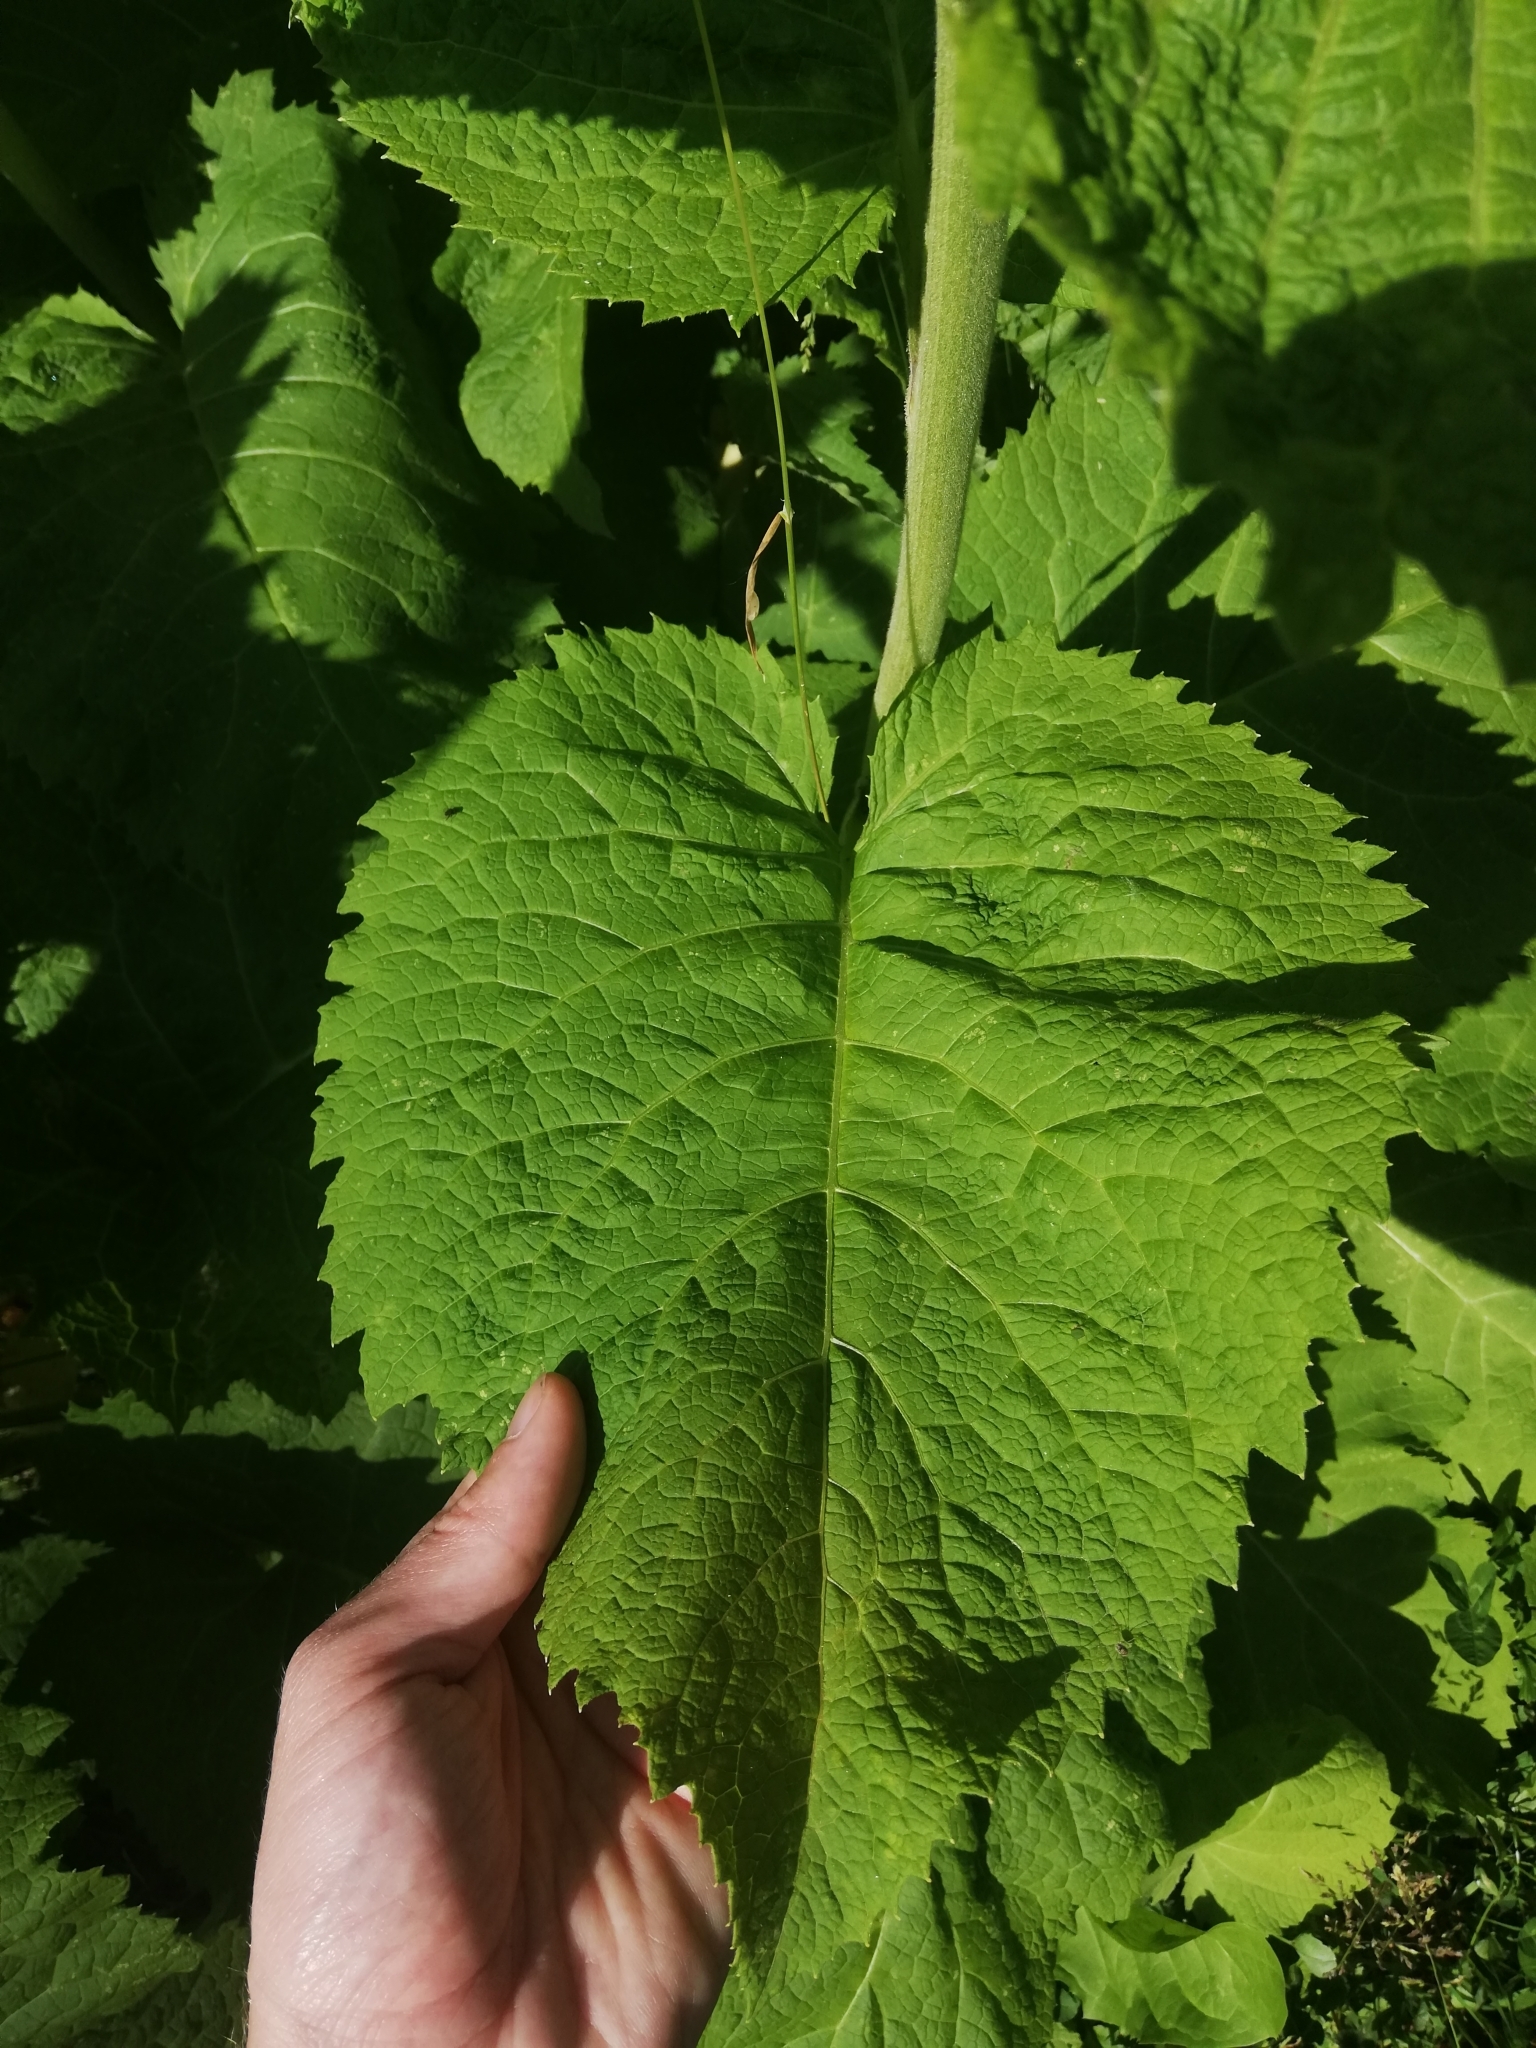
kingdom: Plantae
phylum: Tracheophyta
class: Magnoliopsida
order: Asterales
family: Asteraceae
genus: Telekia
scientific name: Telekia speciosa
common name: Yellow oxeye
